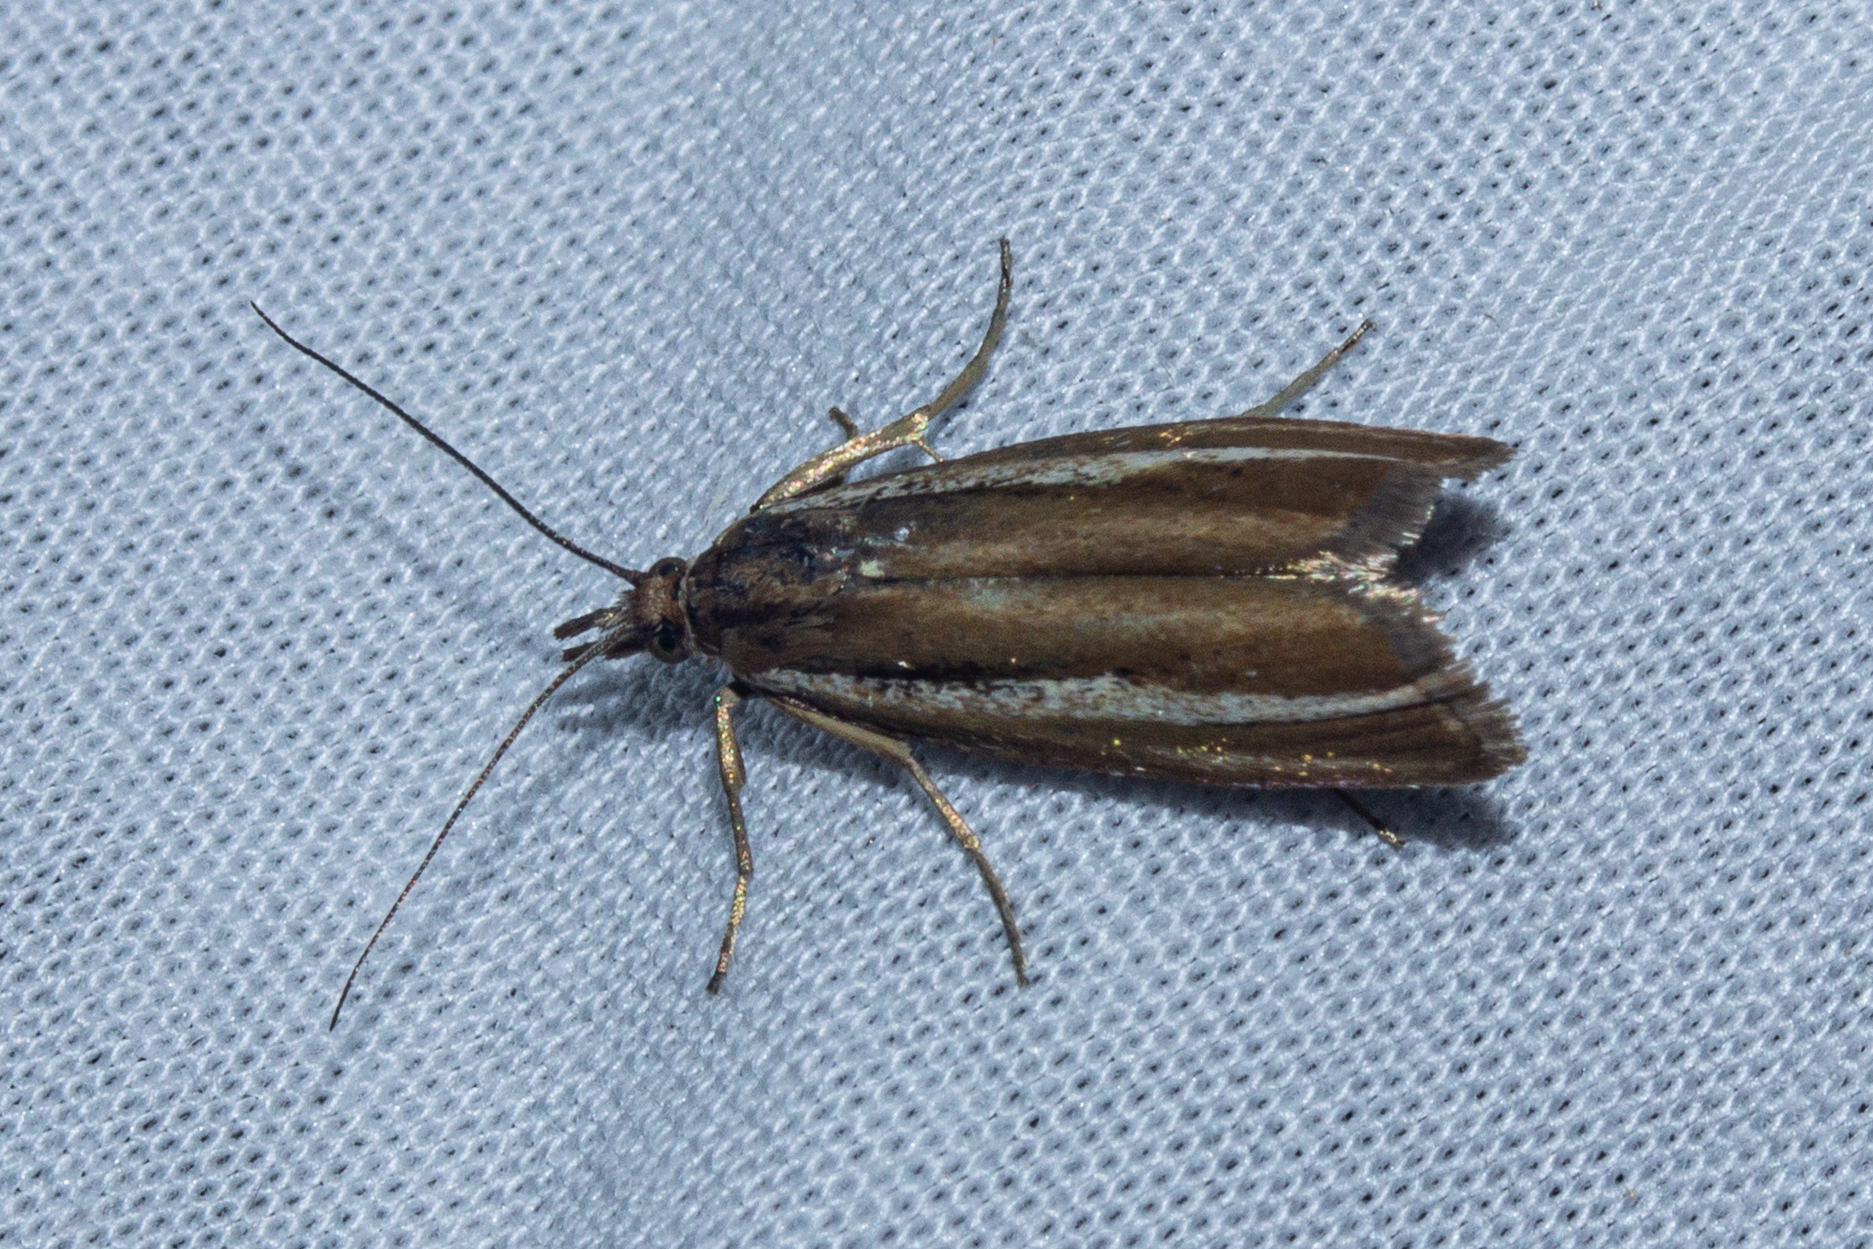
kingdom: Animalia
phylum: Arthropoda
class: Insecta
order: Lepidoptera
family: Crambidae
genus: Orocrambus
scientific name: Orocrambus melitastes
